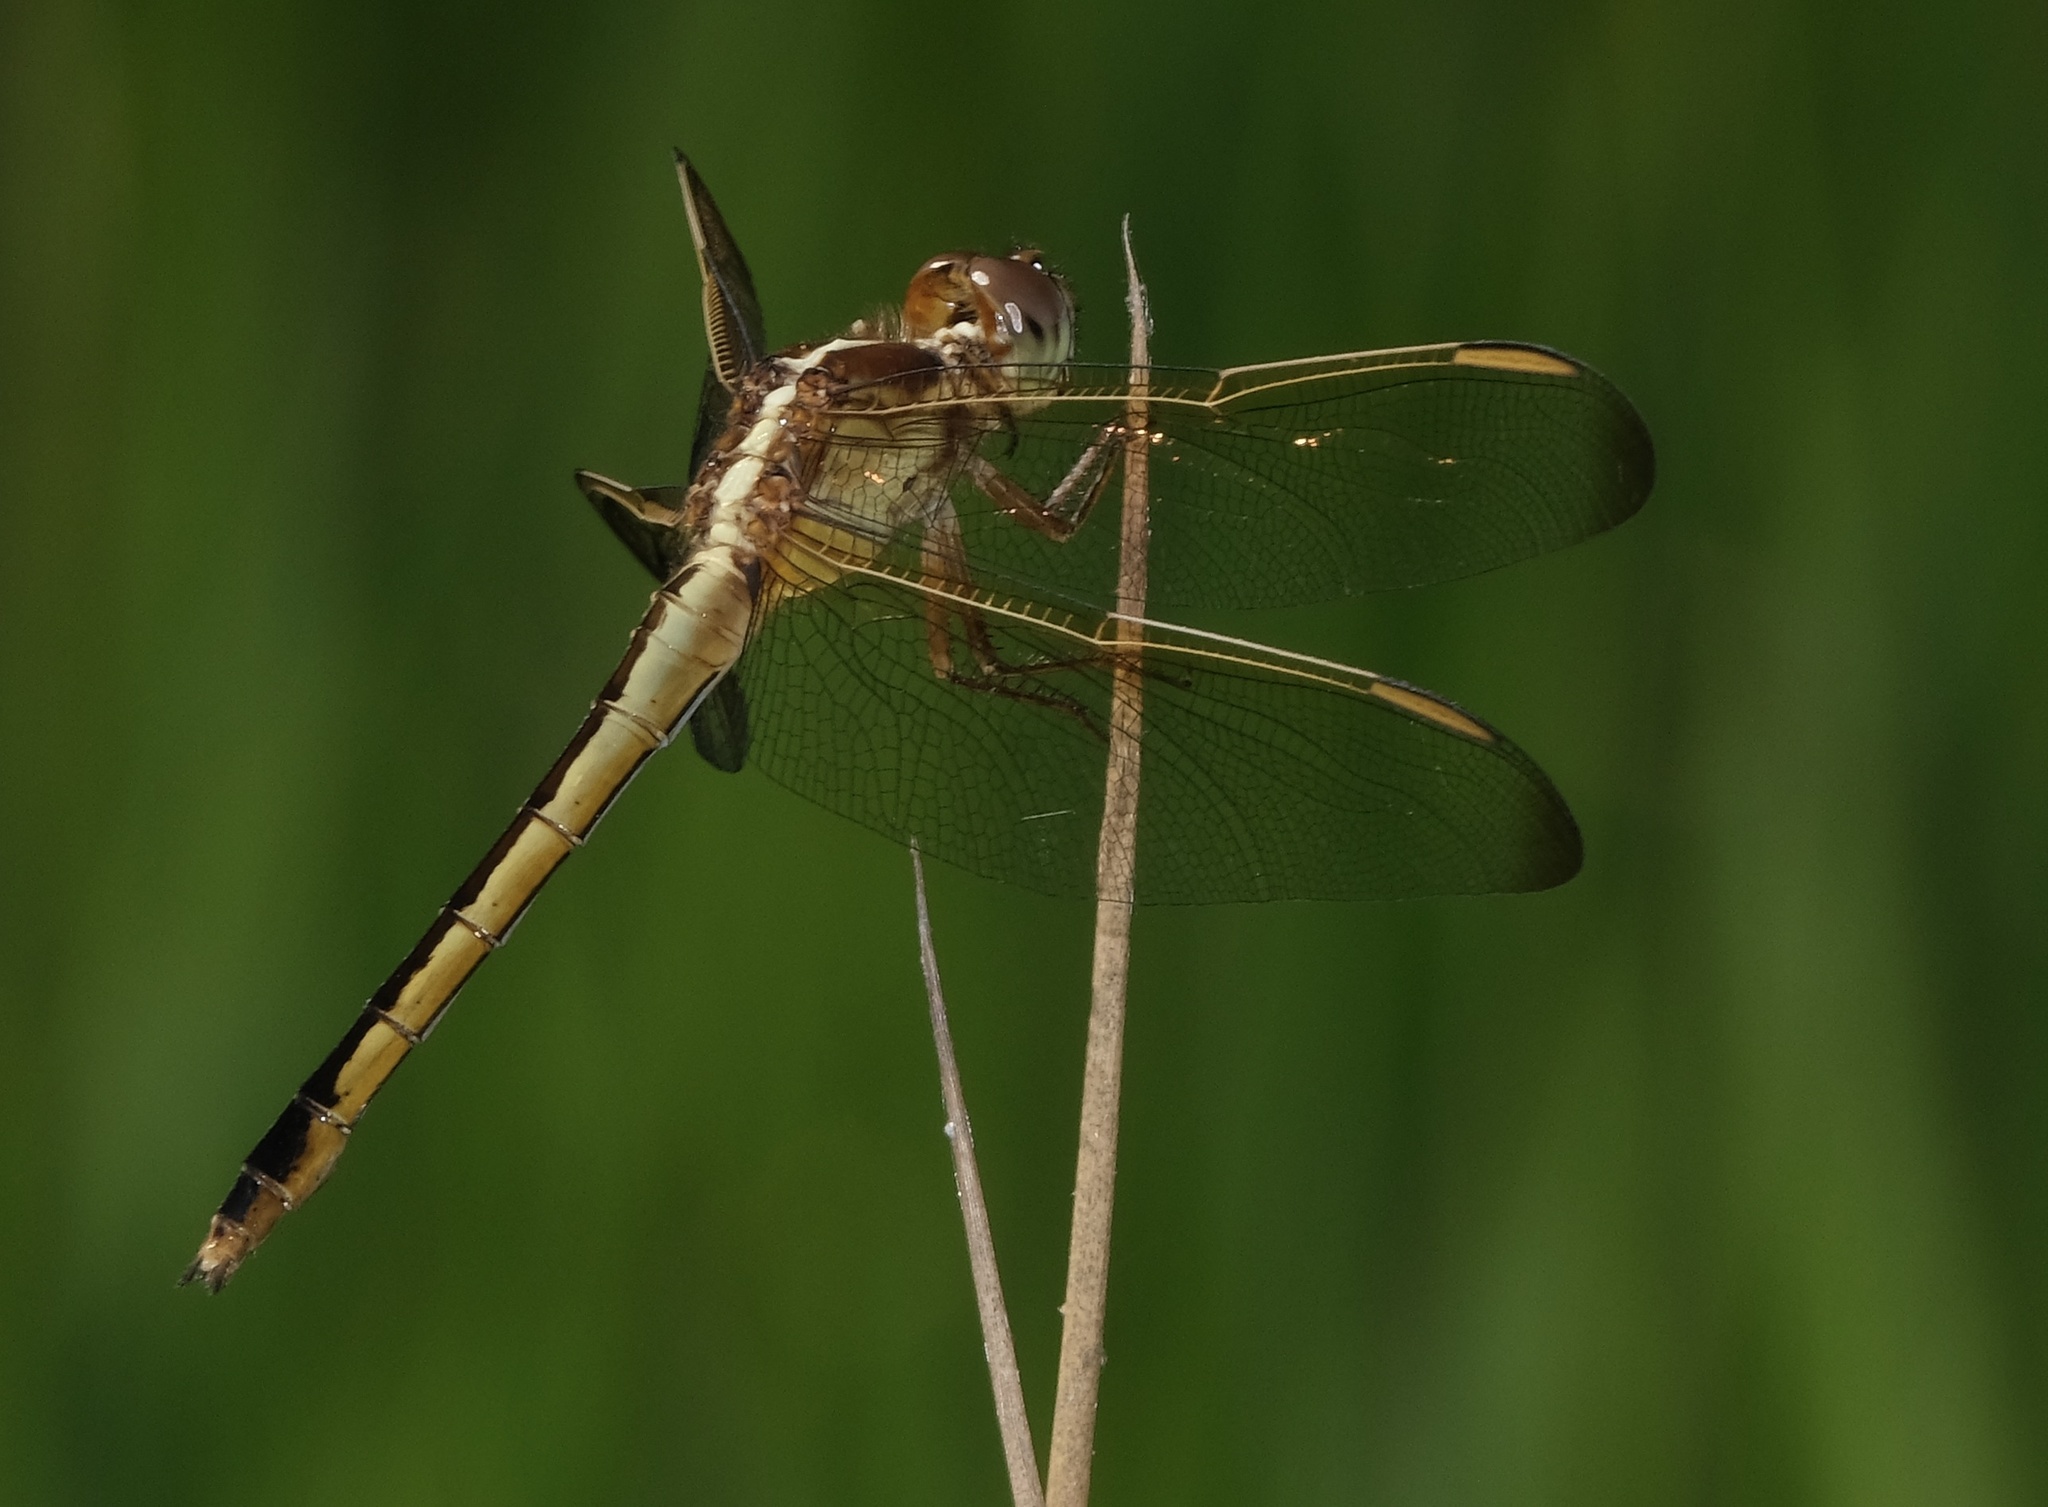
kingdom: Animalia
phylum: Arthropoda
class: Insecta
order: Odonata
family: Libellulidae
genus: Libellula
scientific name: Libellula needhami
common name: Needham's skimmer
